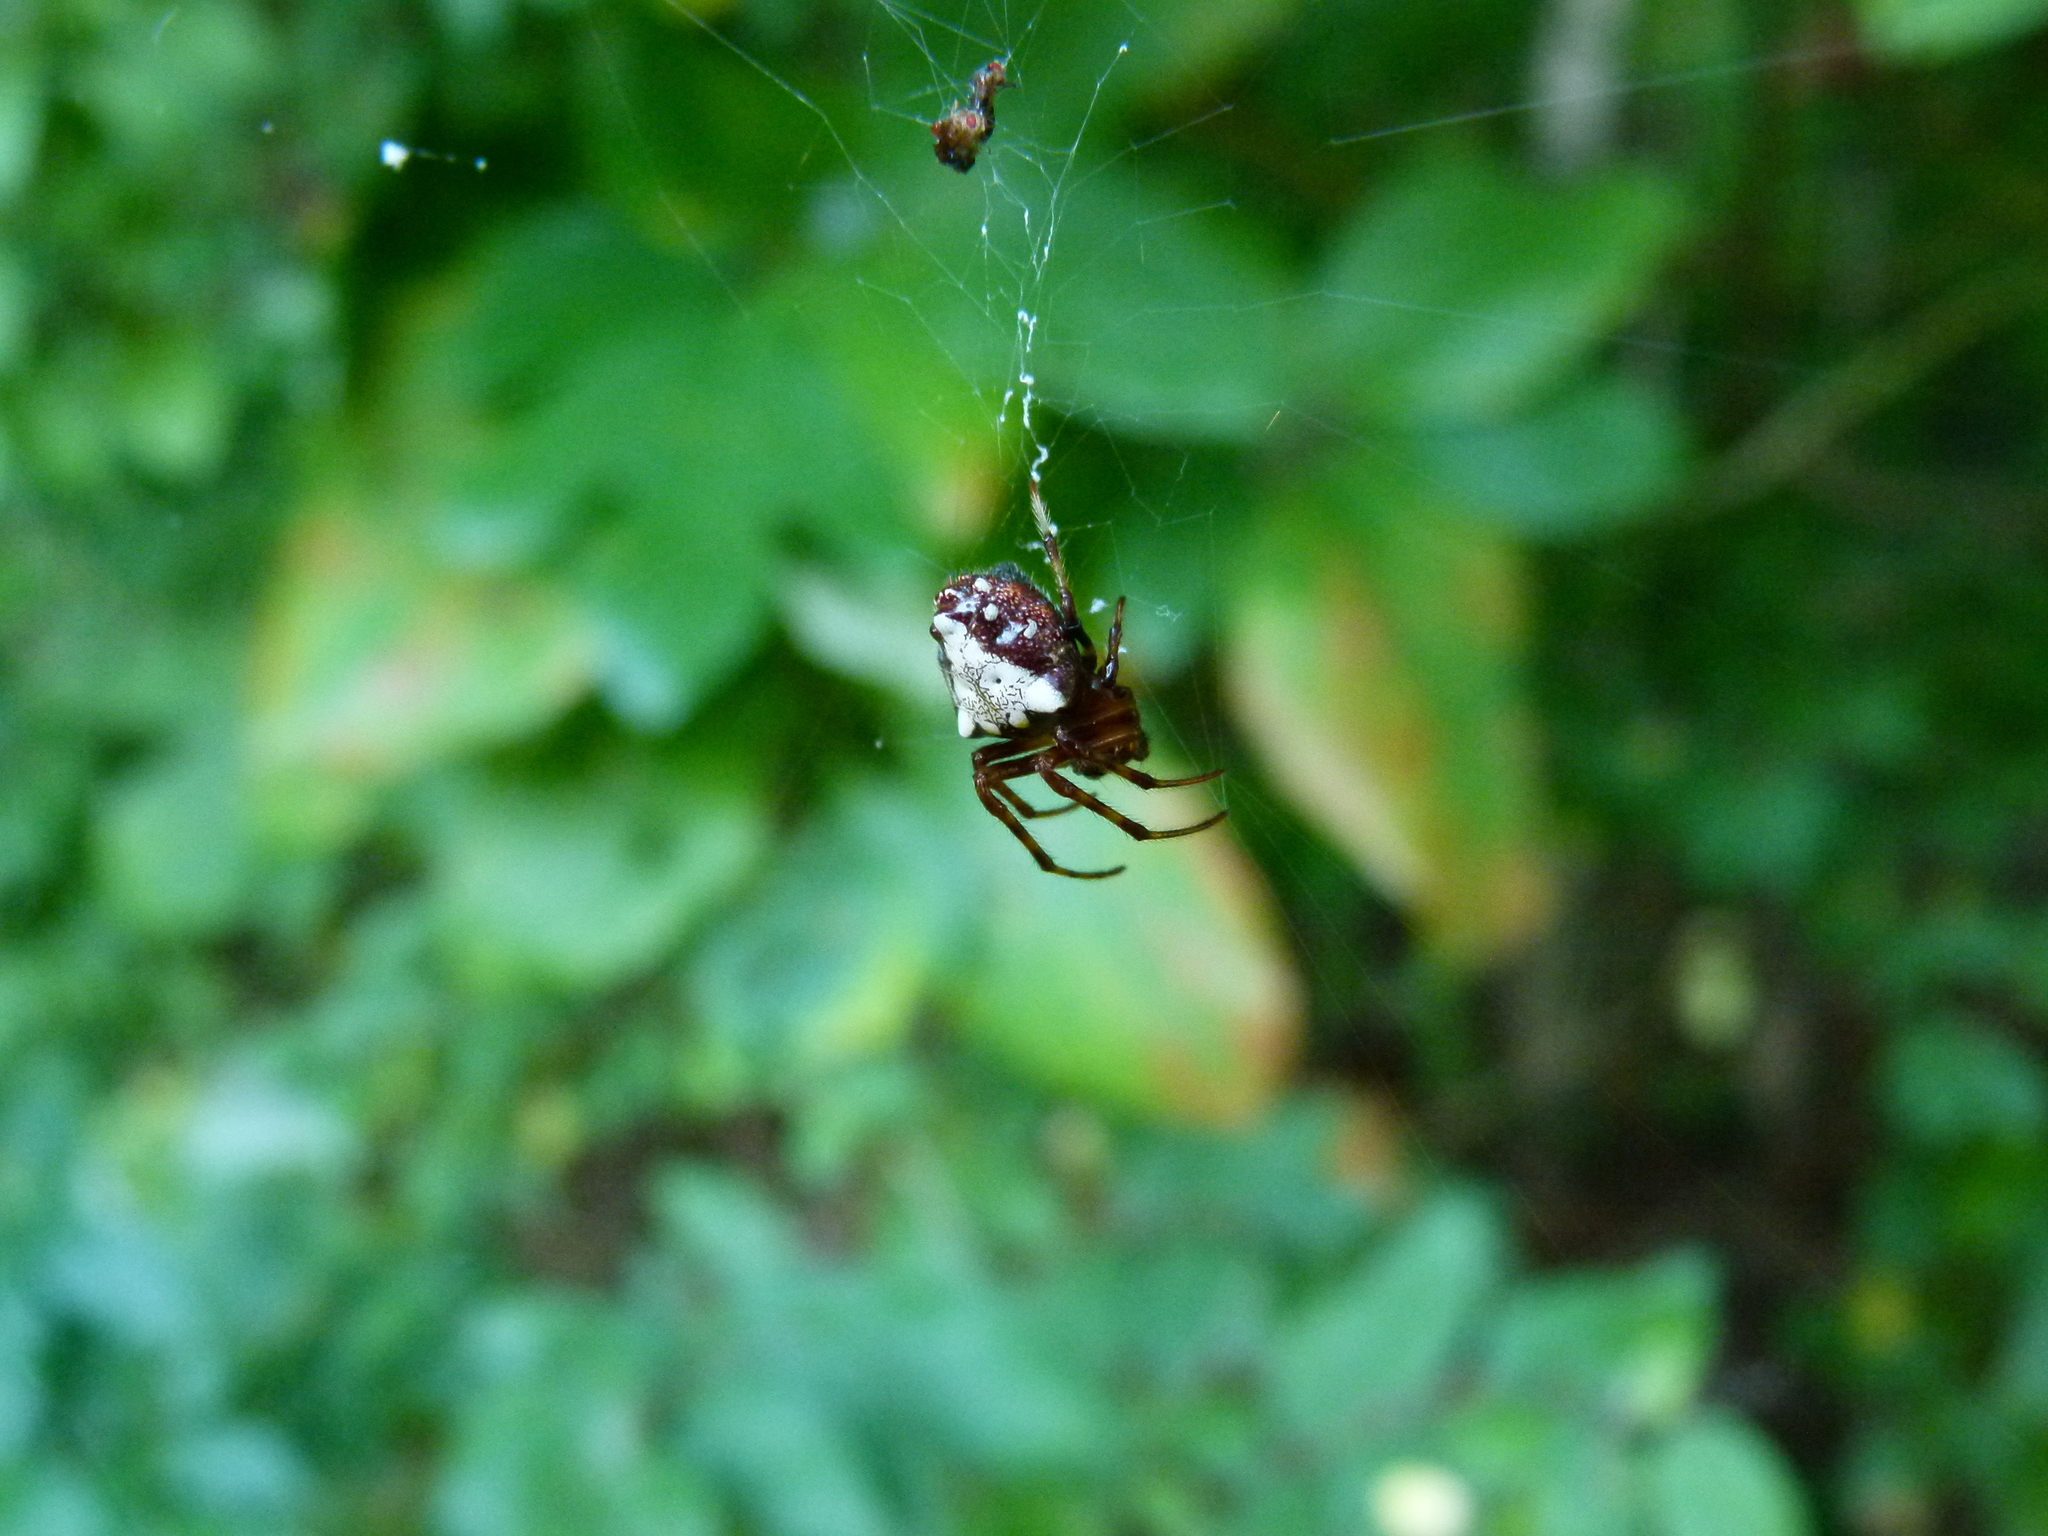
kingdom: Animalia
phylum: Arthropoda
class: Arachnida
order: Araneae
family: Araneidae
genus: Verrucosa
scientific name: Verrucosa arenata
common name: Orb weavers
